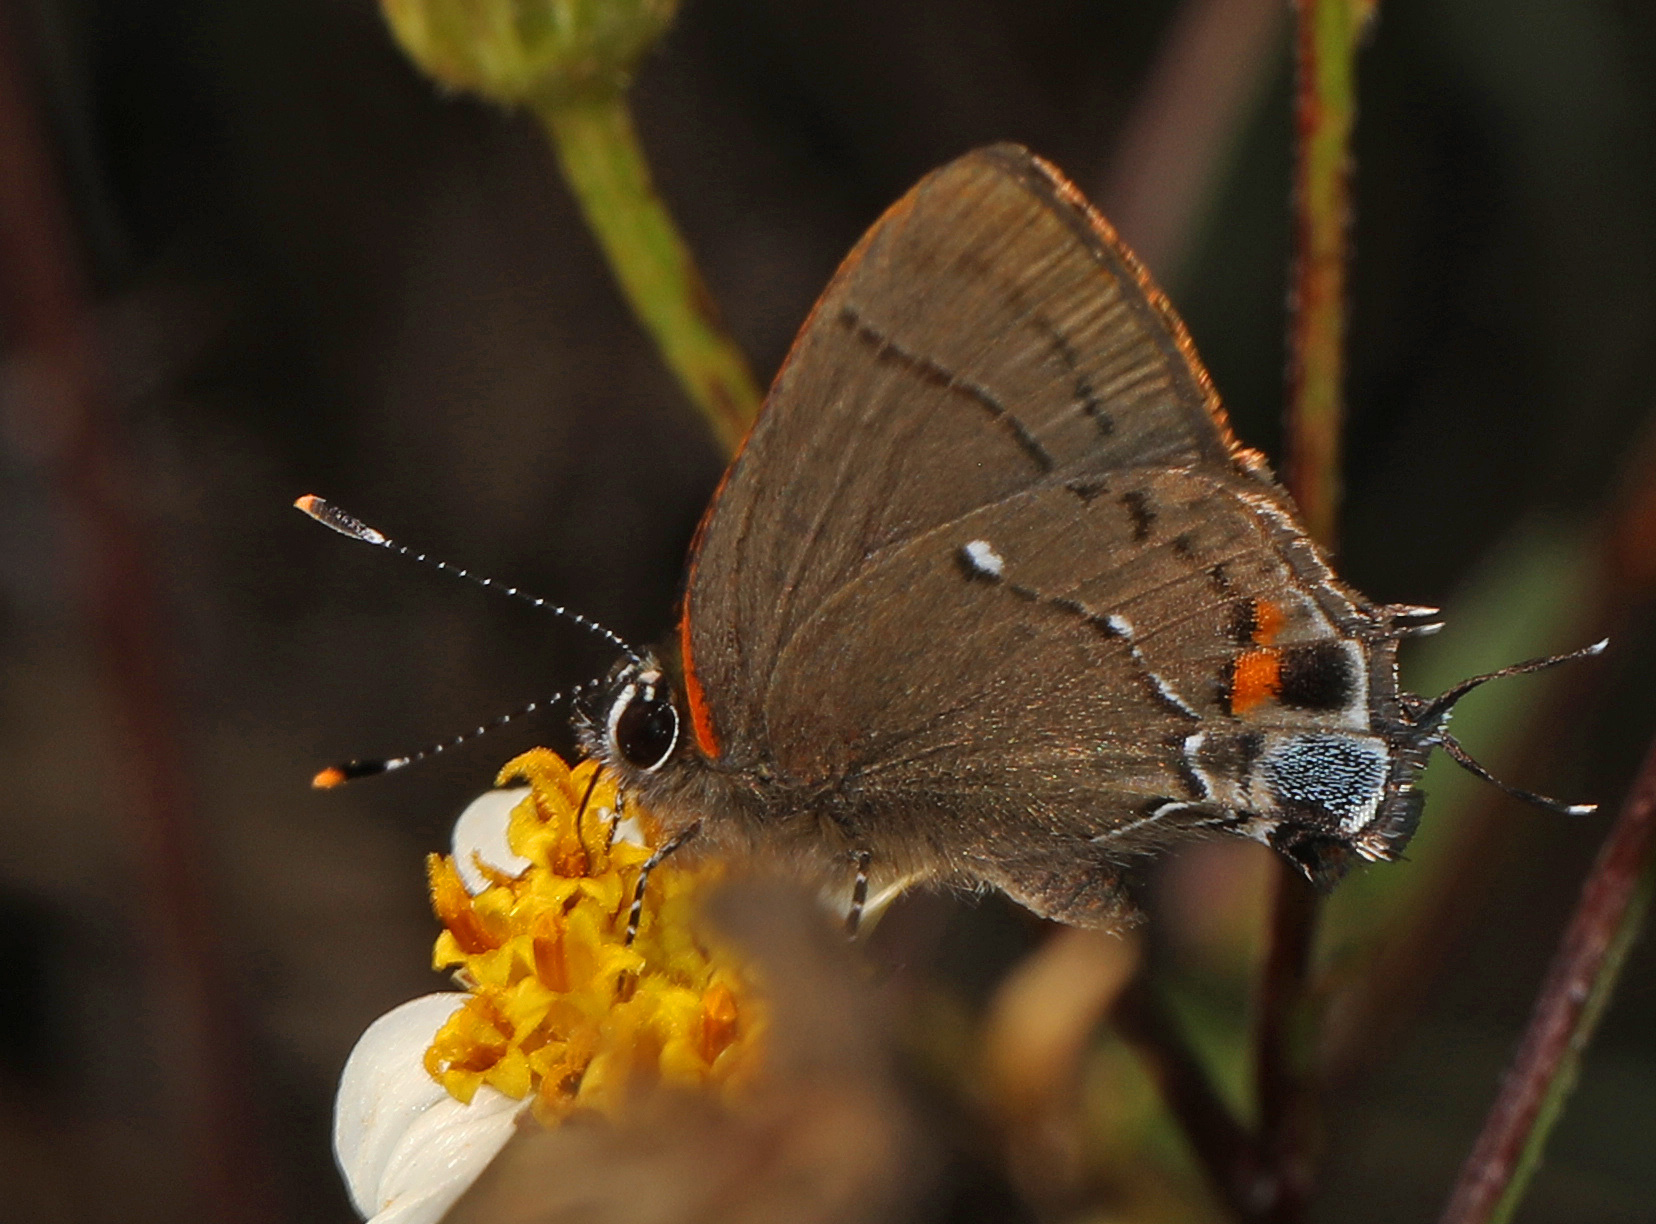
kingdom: Animalia
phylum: Arthropoda
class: Insecta
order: Lepidoptera
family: Lycaenidae
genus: Thecla
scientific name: Thecla angelia
